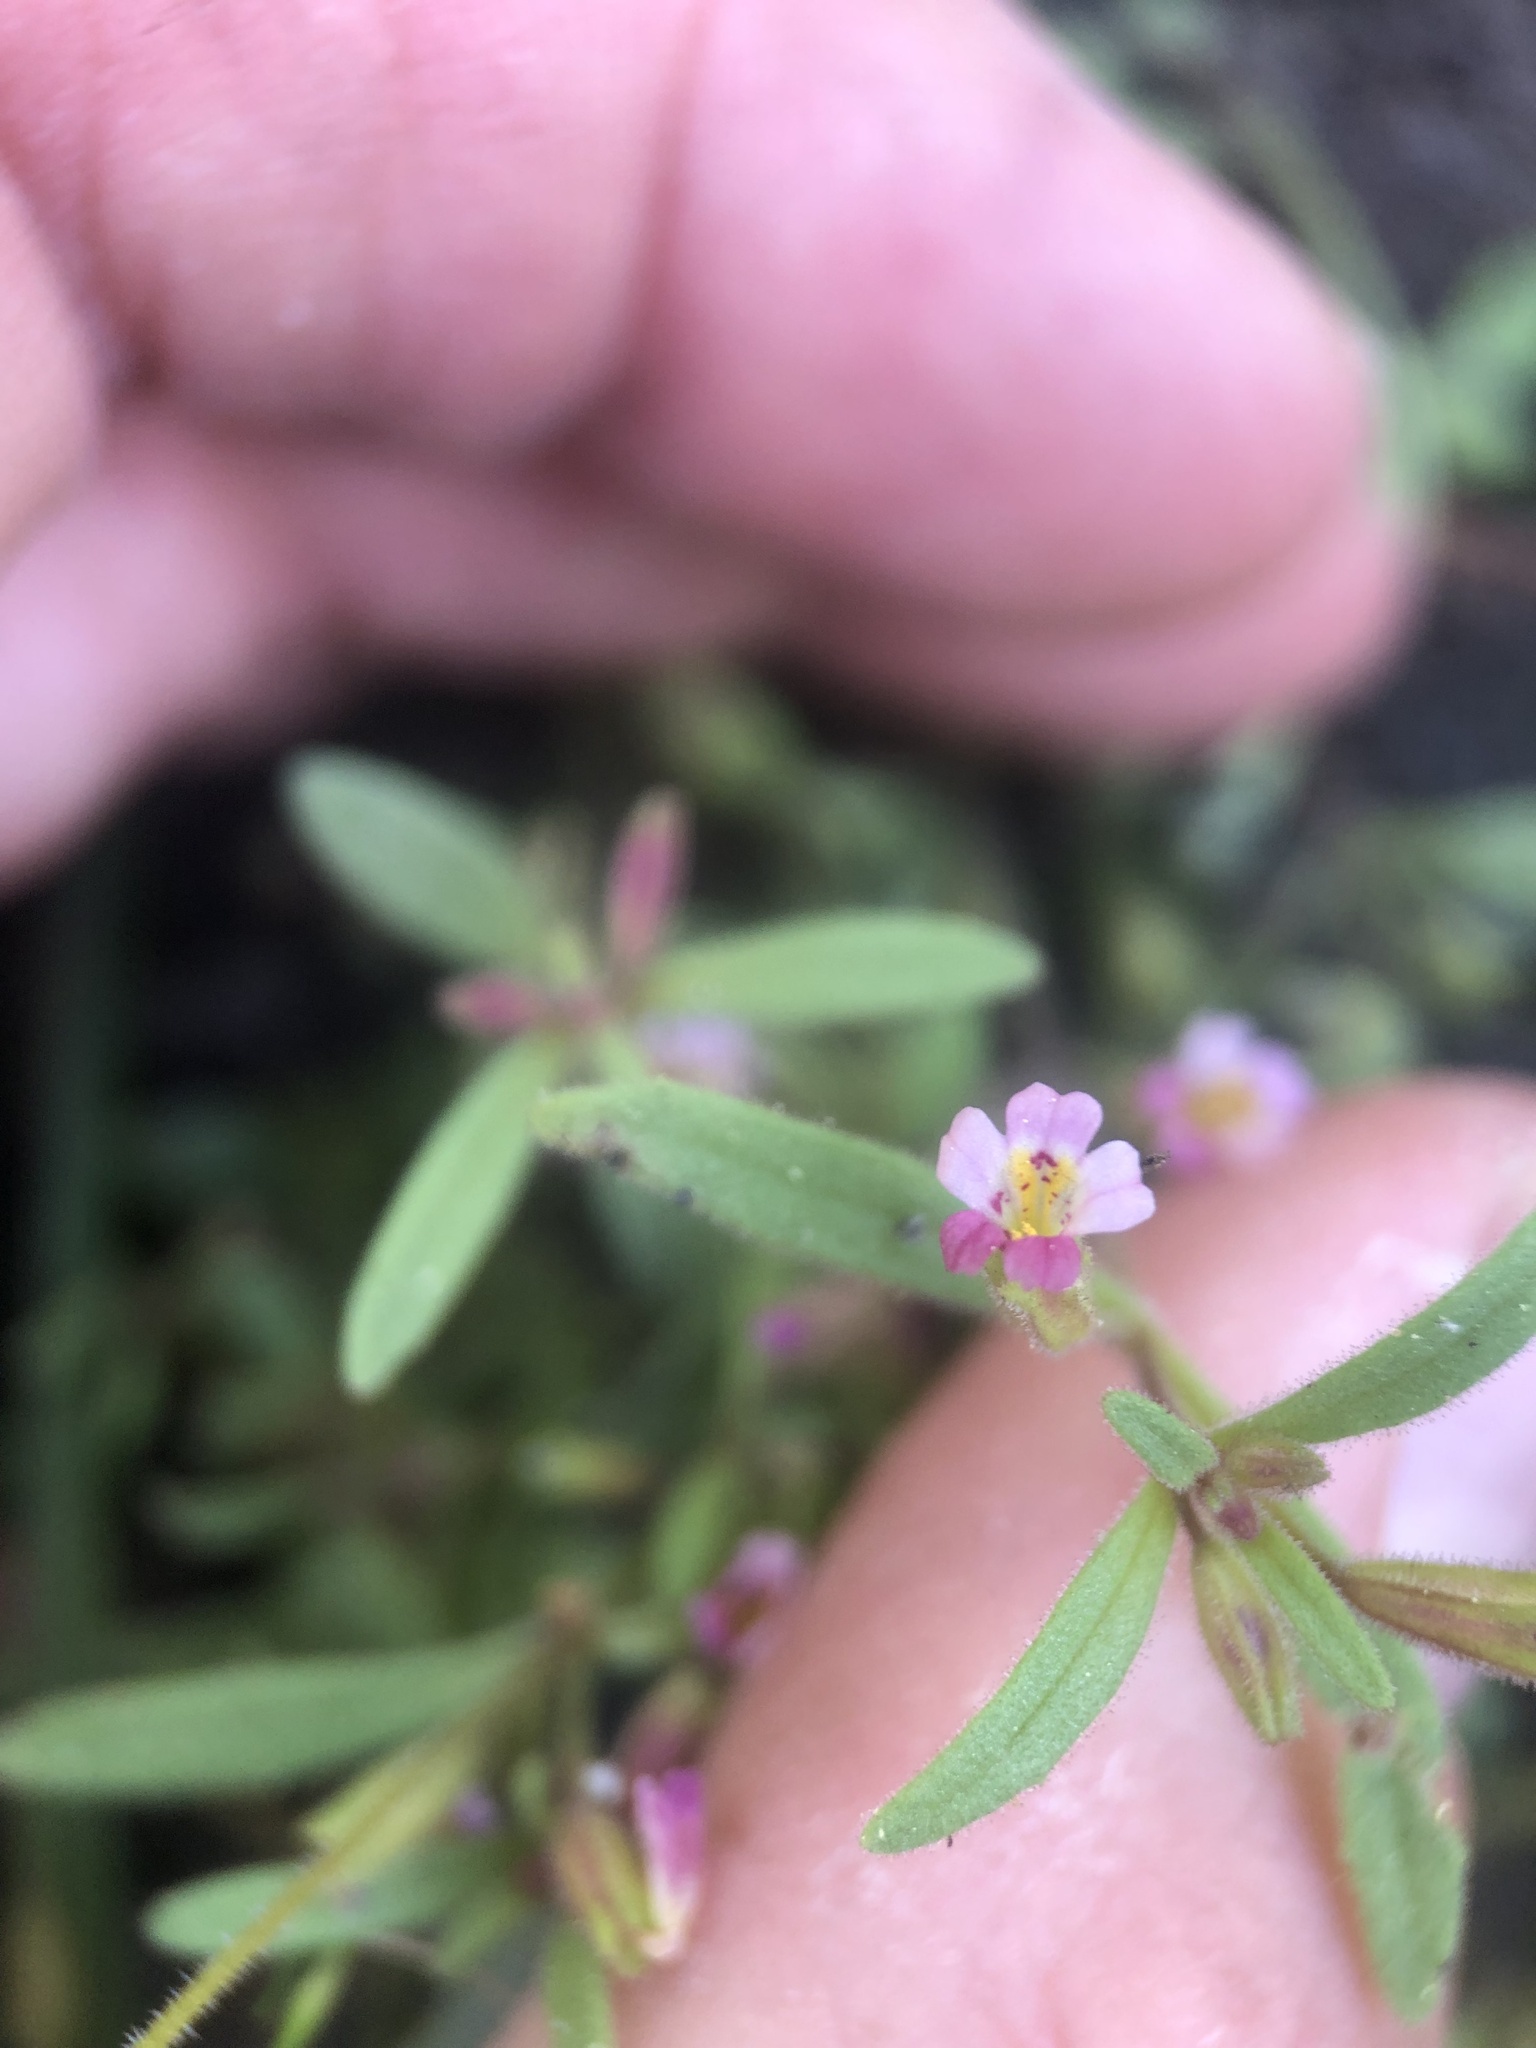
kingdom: Plantae
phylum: Tracheophyta
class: Magnoliopsida
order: Lamiales
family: Phrymaceae
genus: Erythranthe
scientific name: Erythranthe breweri
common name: Brewer's monkeyflower
